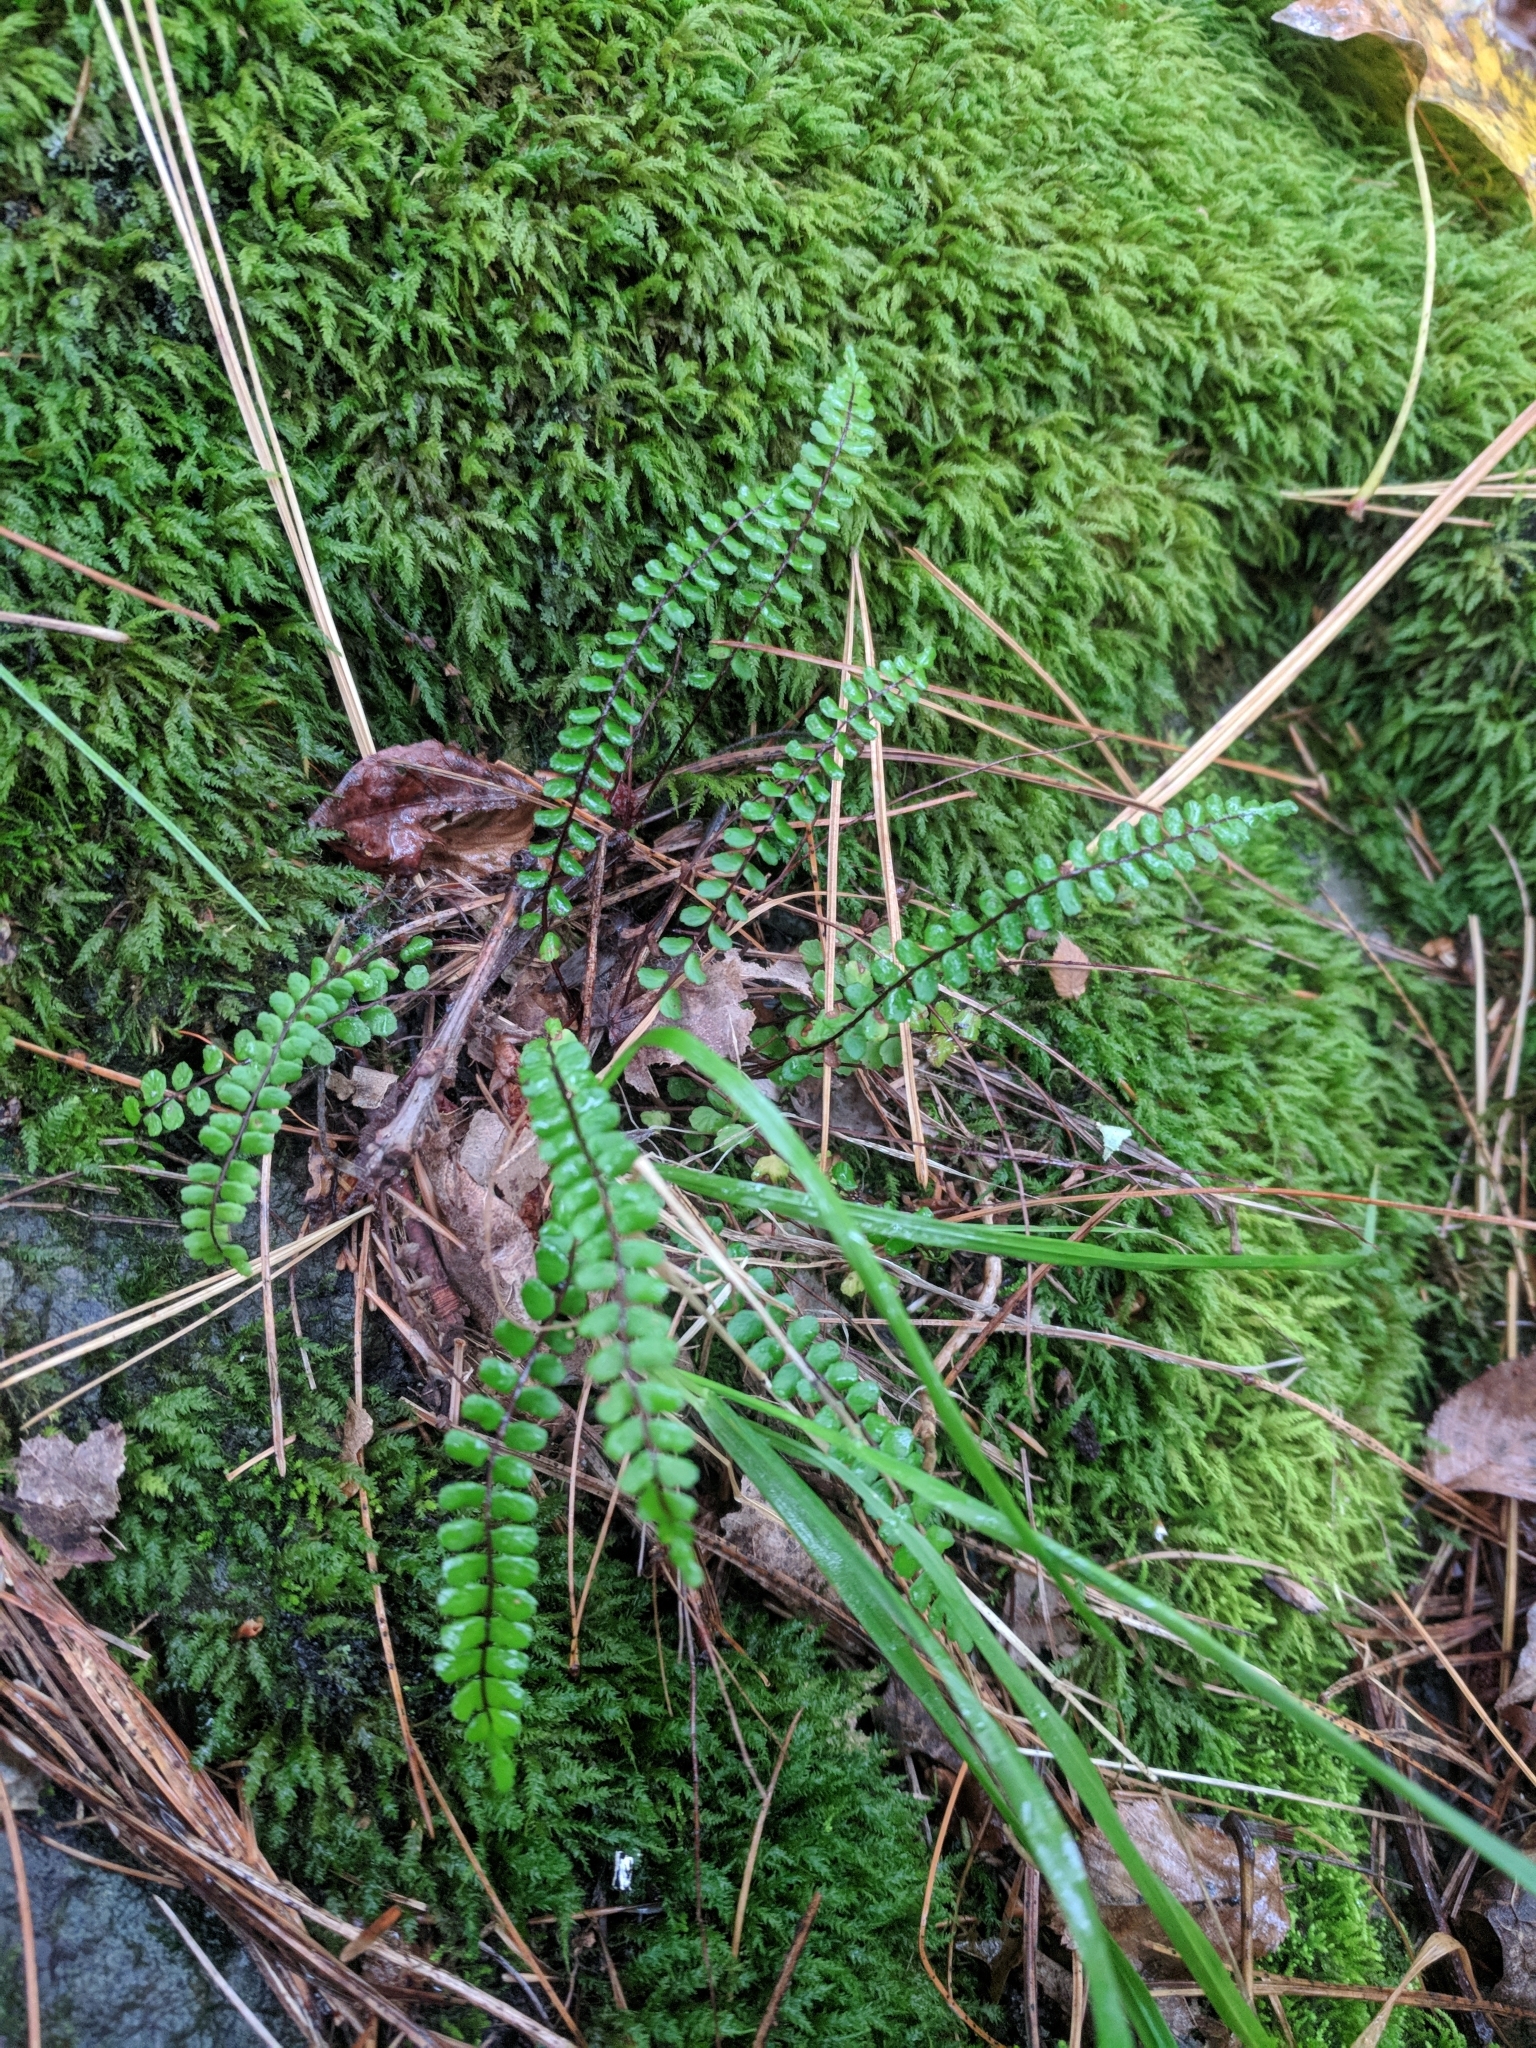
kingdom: Plantae
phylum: Tracheophyta
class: Polypodiopsida
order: Polypodiales
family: Aspleniaceae
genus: Asplenium
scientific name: Asplenium trichomanes
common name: Maidenhair spleenwort
